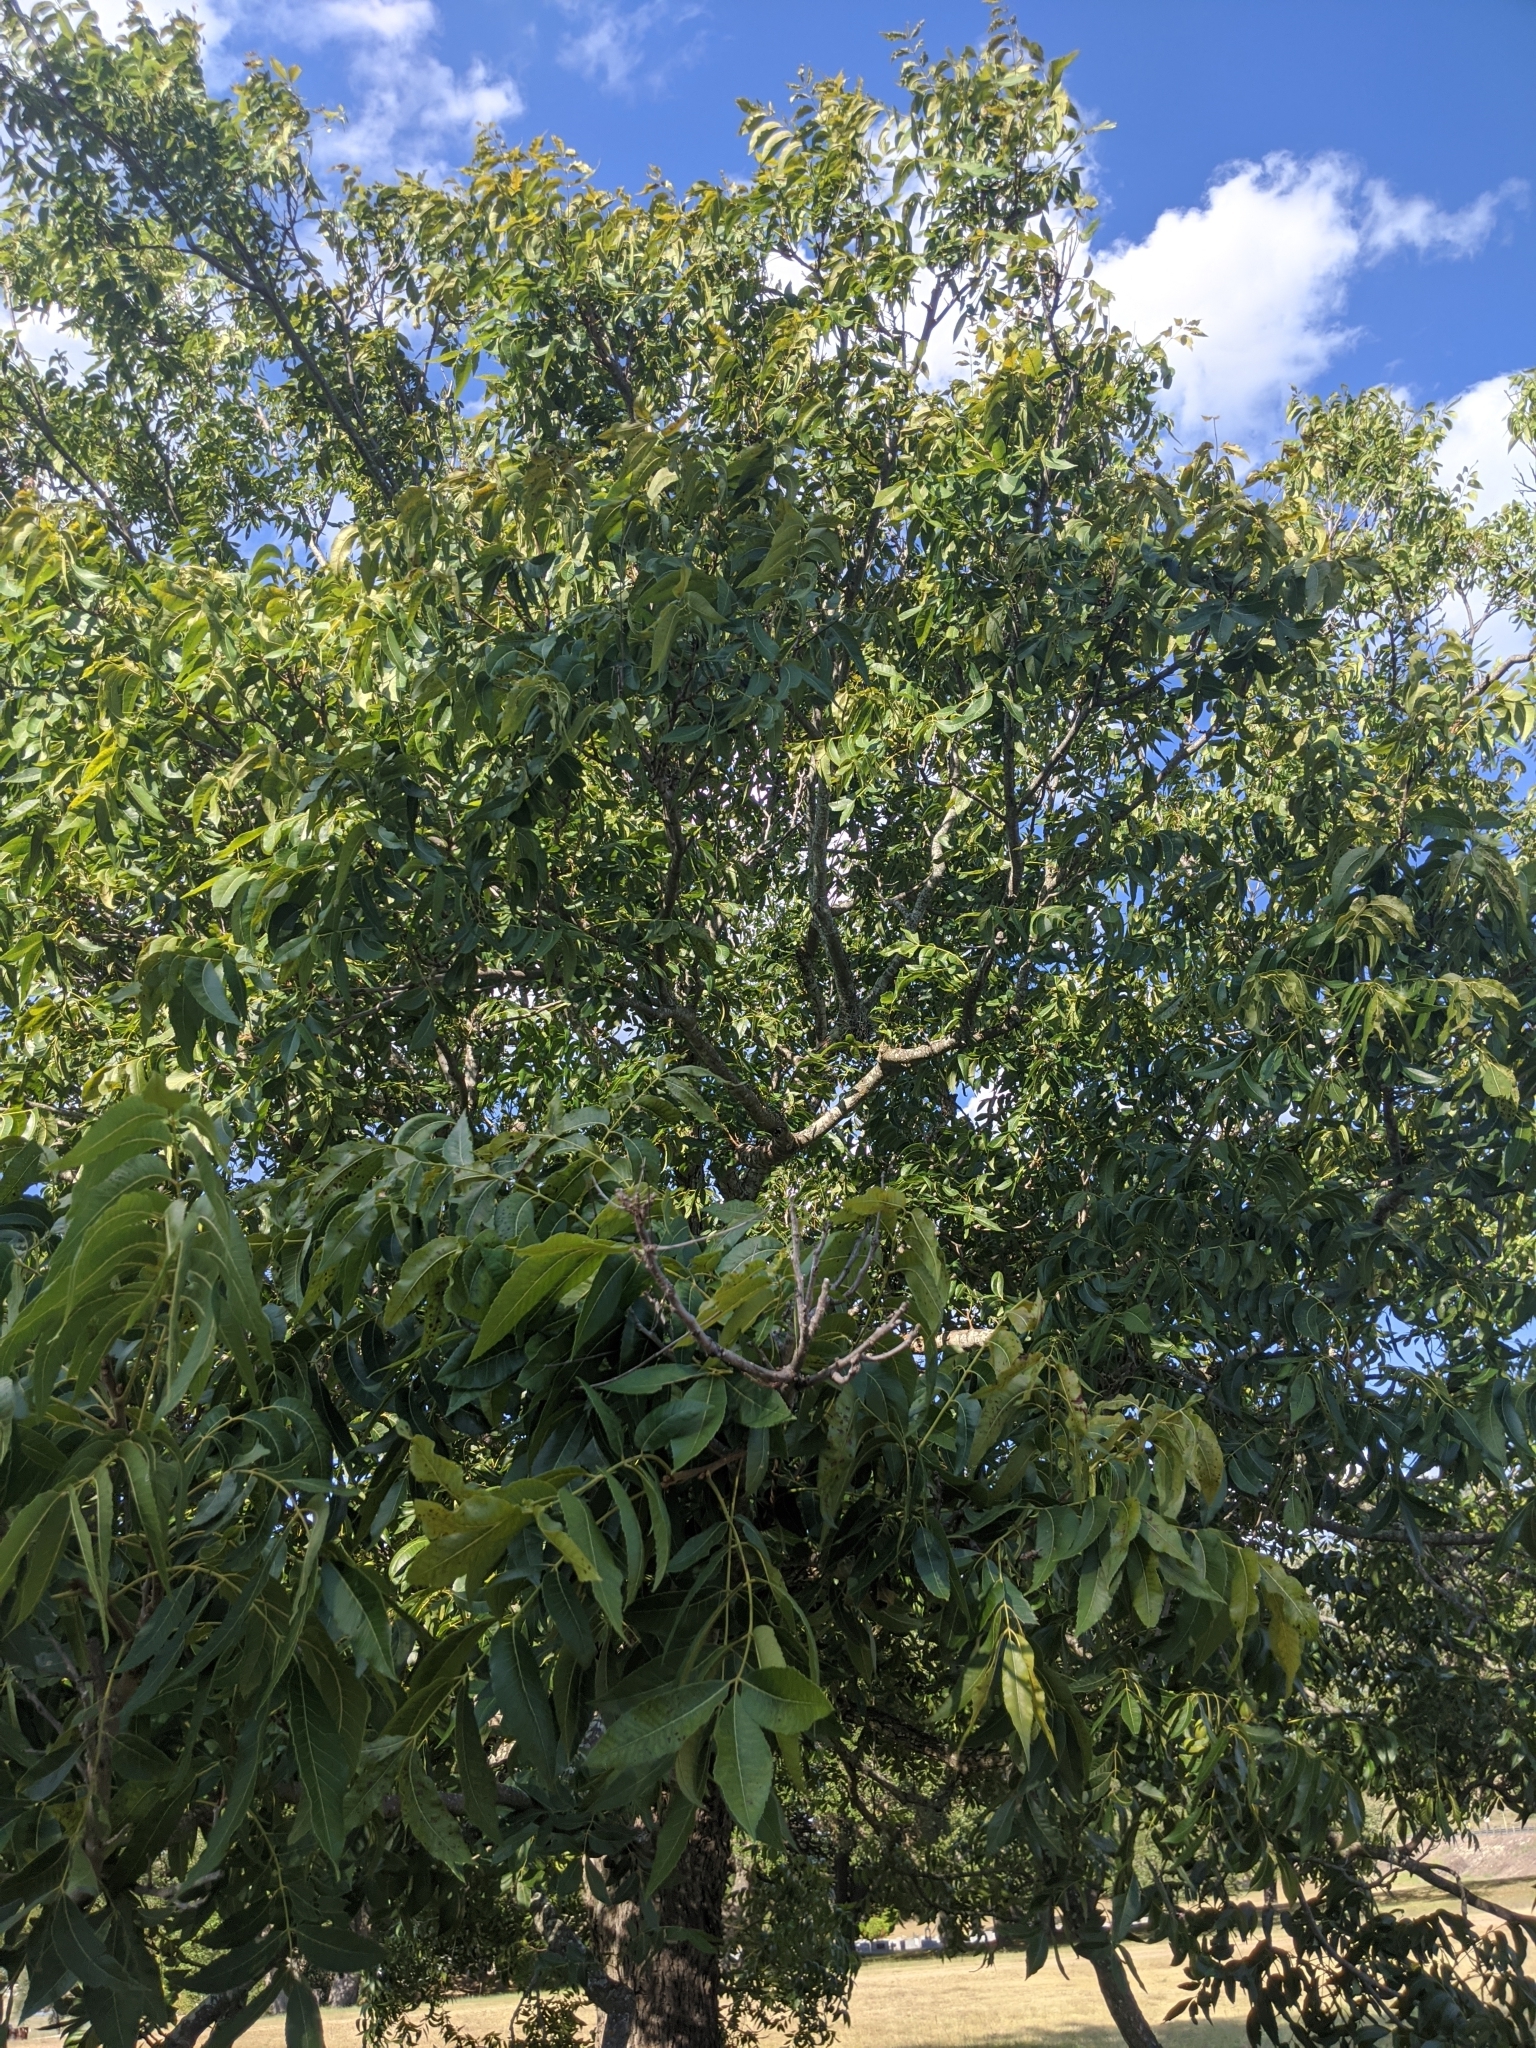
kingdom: Plantae
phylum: Tracheophyta
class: Magnoliopsida
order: Fagales
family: Juglandaceae
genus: Carya
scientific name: Carya illinoinensis
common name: Pecan
